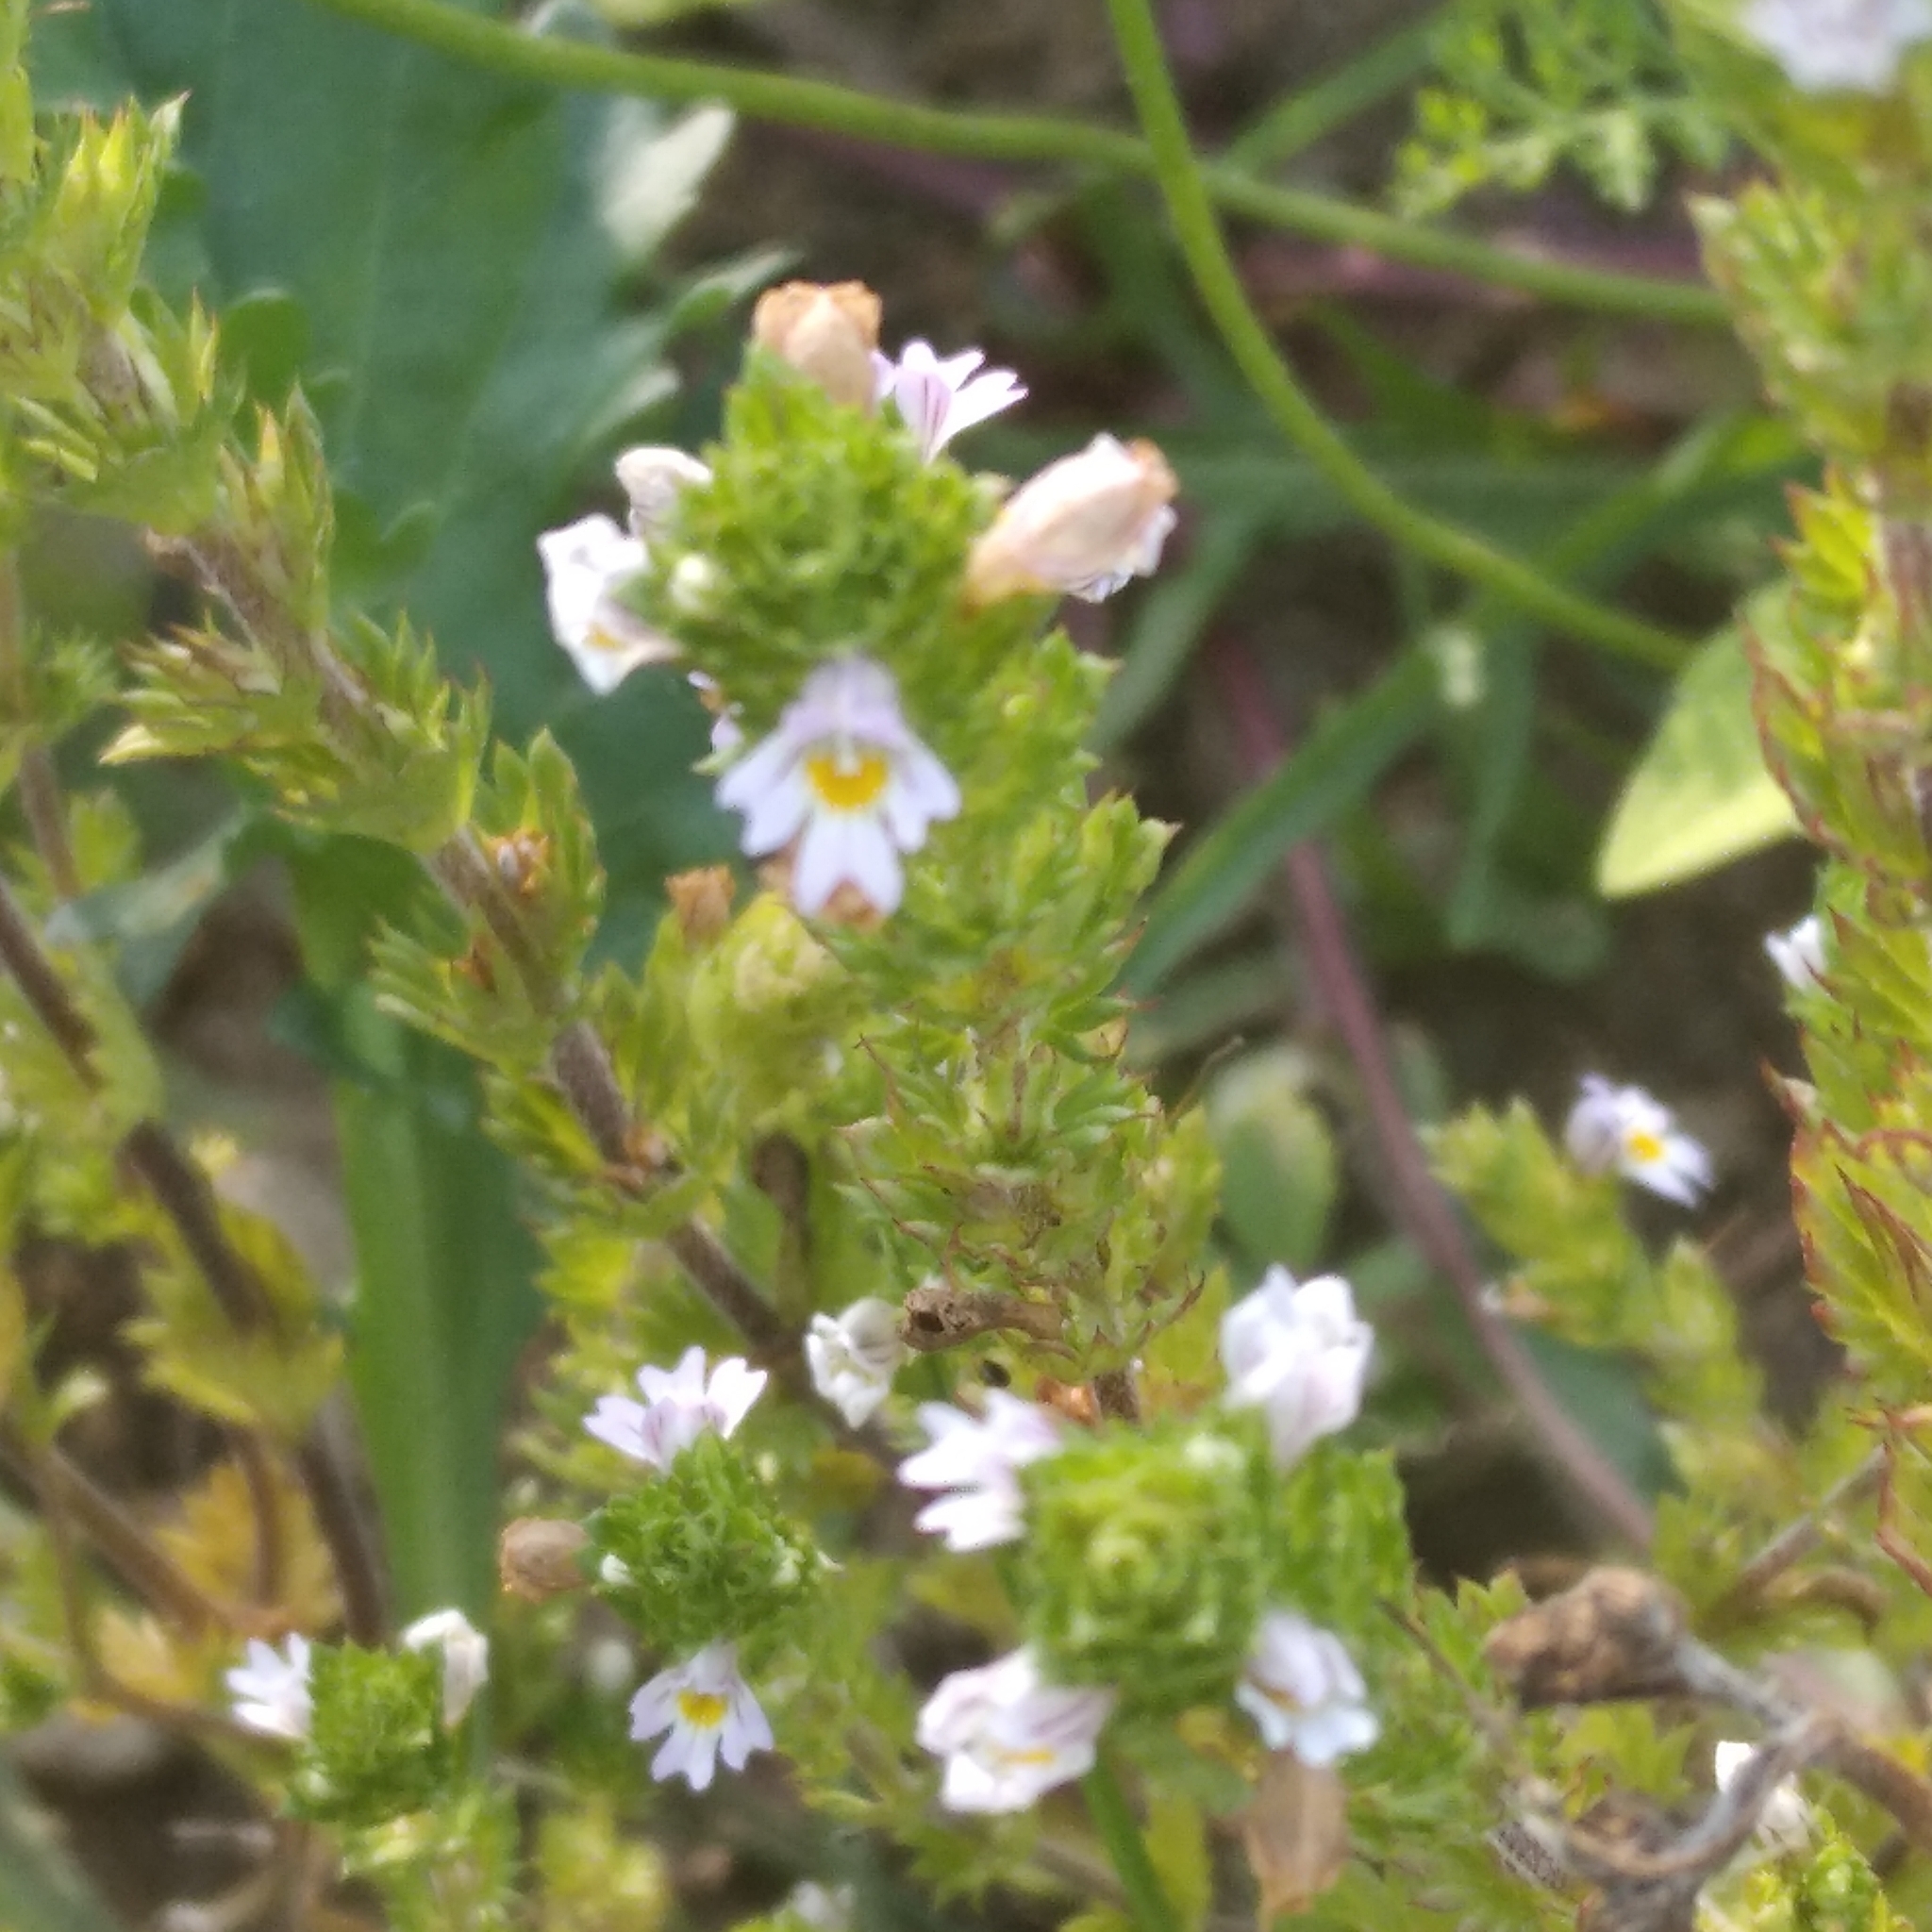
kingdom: Plantae
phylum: Tracheophyta
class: Magnoliopsida
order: Lamiales
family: Orobanchaceae
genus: Euphrasia
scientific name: Euphrasia stricta
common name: Drug eyebright
